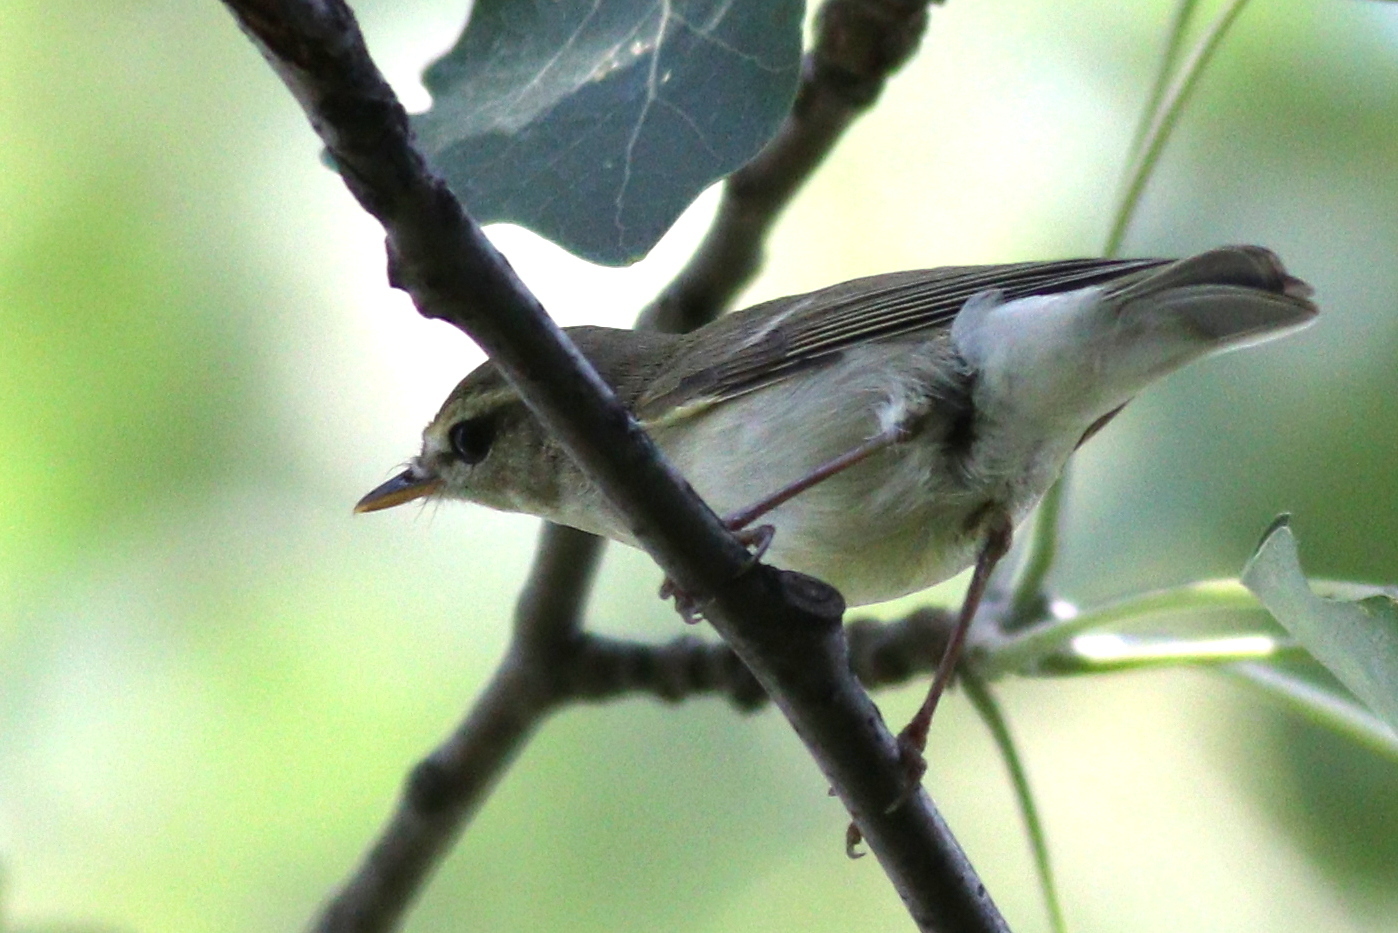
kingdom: Animalia
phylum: Chordata
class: Aves
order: Passeriformes
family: Phylloscopidae
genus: Phylloscopus
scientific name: Phylloscopus trochiloides
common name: Greenish warbler
